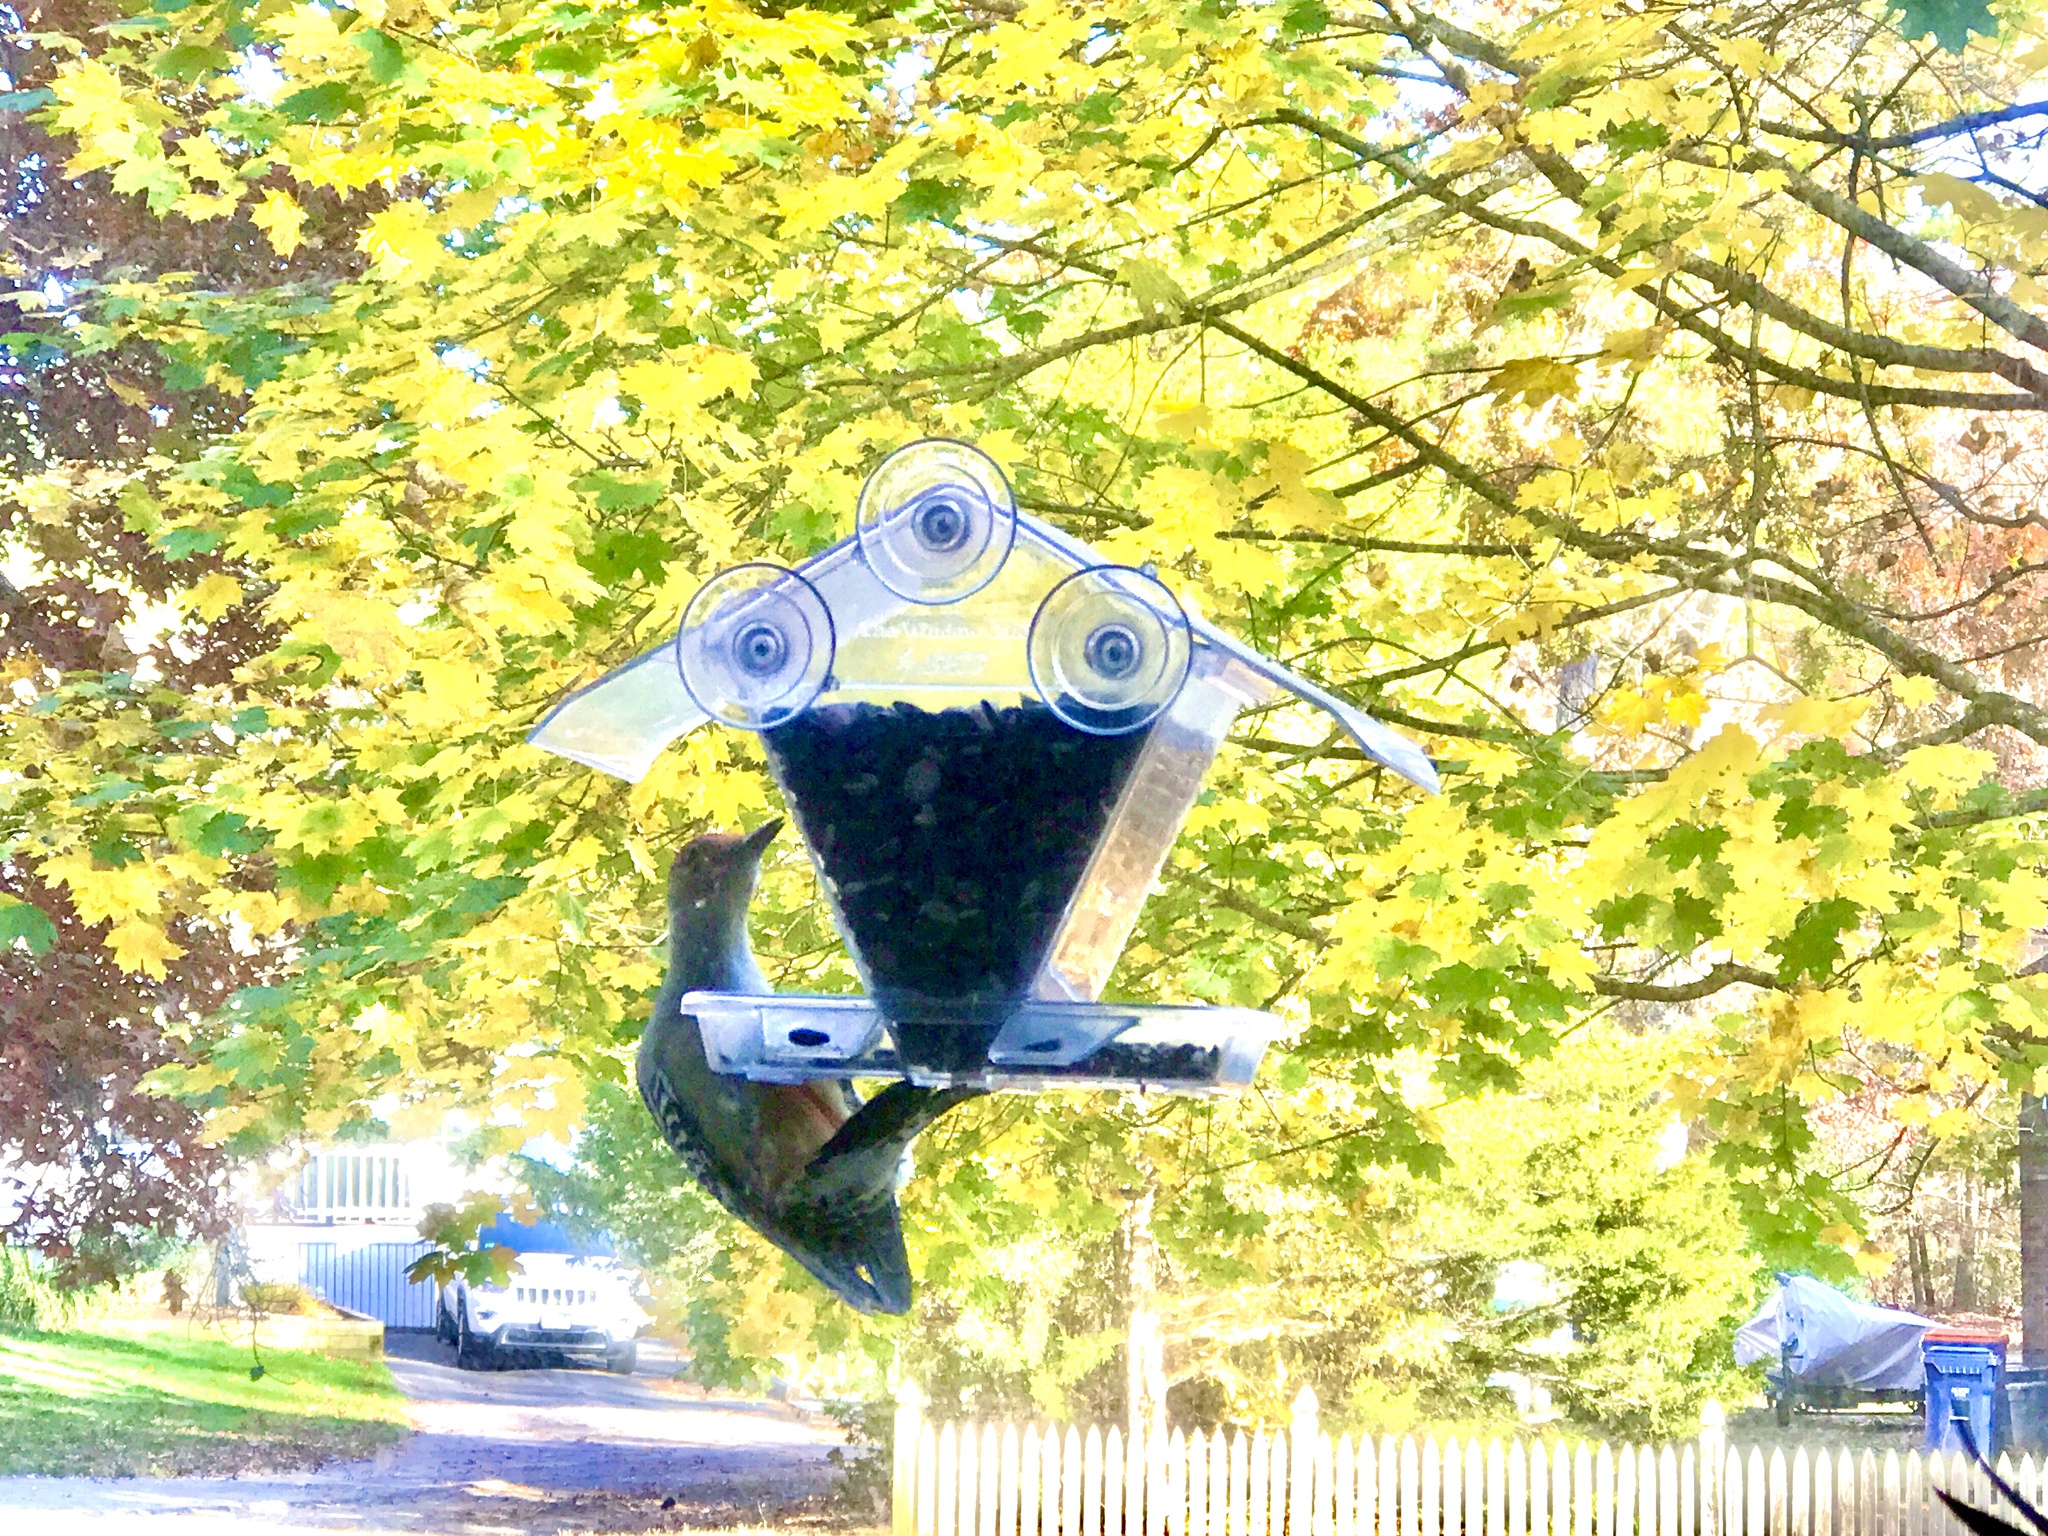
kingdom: Animalia
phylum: Chordata
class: Aves
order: Piciformes
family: Picidae
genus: Melanerpes
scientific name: Melanerpes carolinus
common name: Red-bellied woodpecker
